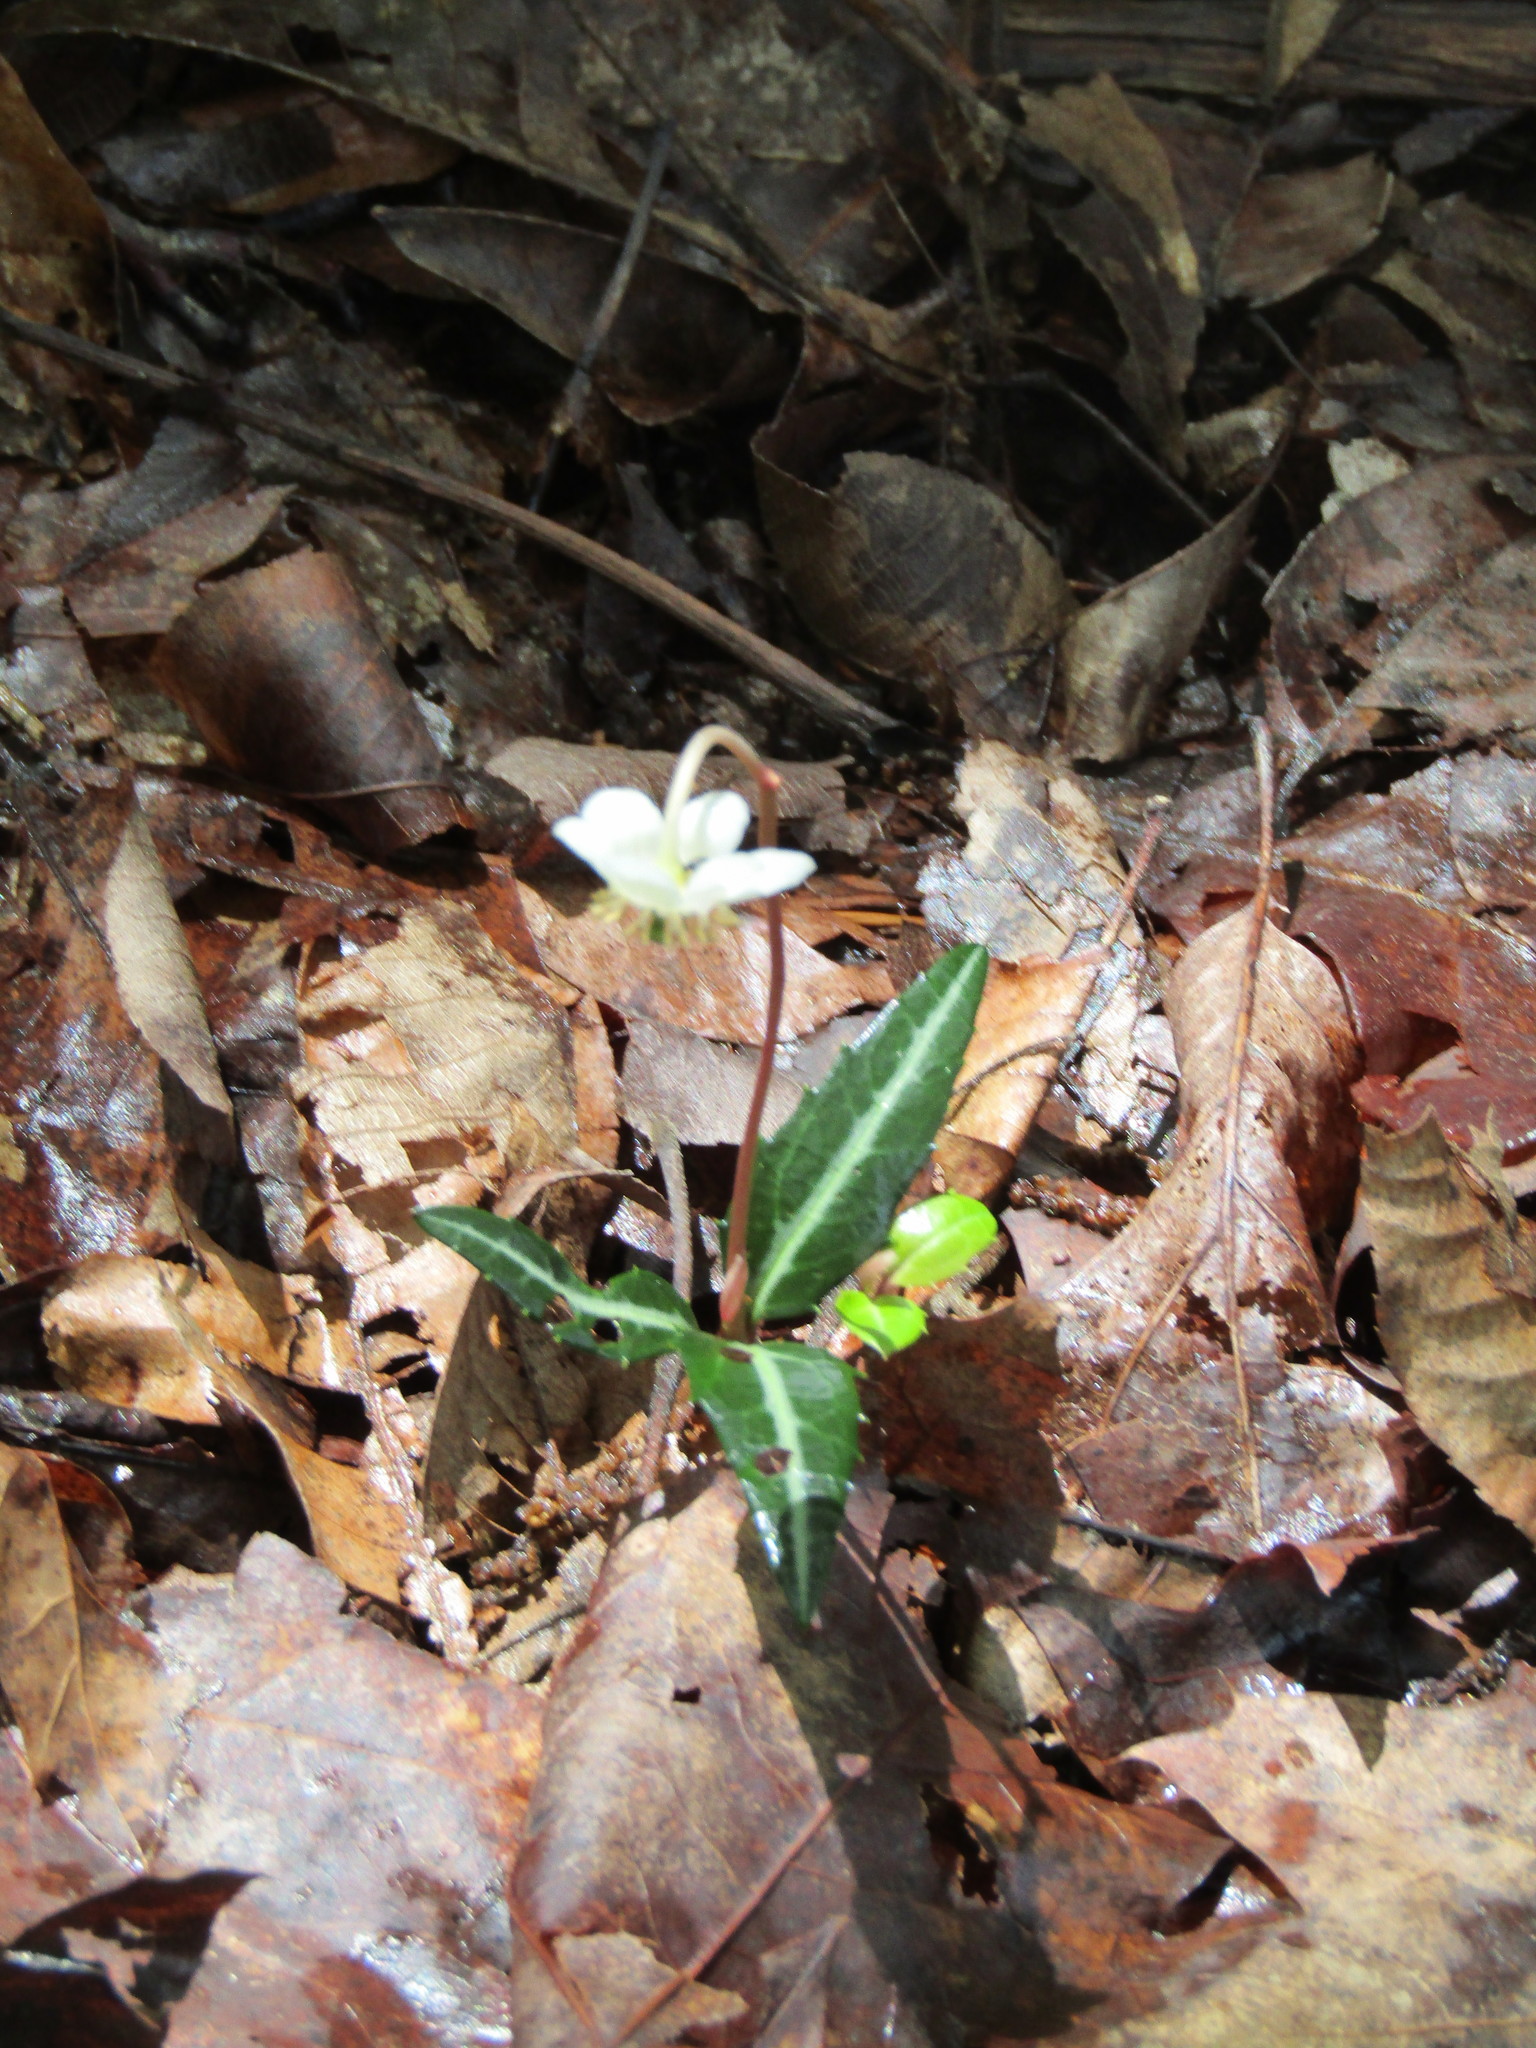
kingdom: Plantae
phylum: Tracheophyta
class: Magnoliopsida
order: Ericales
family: Ericaceae
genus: Chimaphila
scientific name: Chimaphila maculata
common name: Spotted pipsissewa
